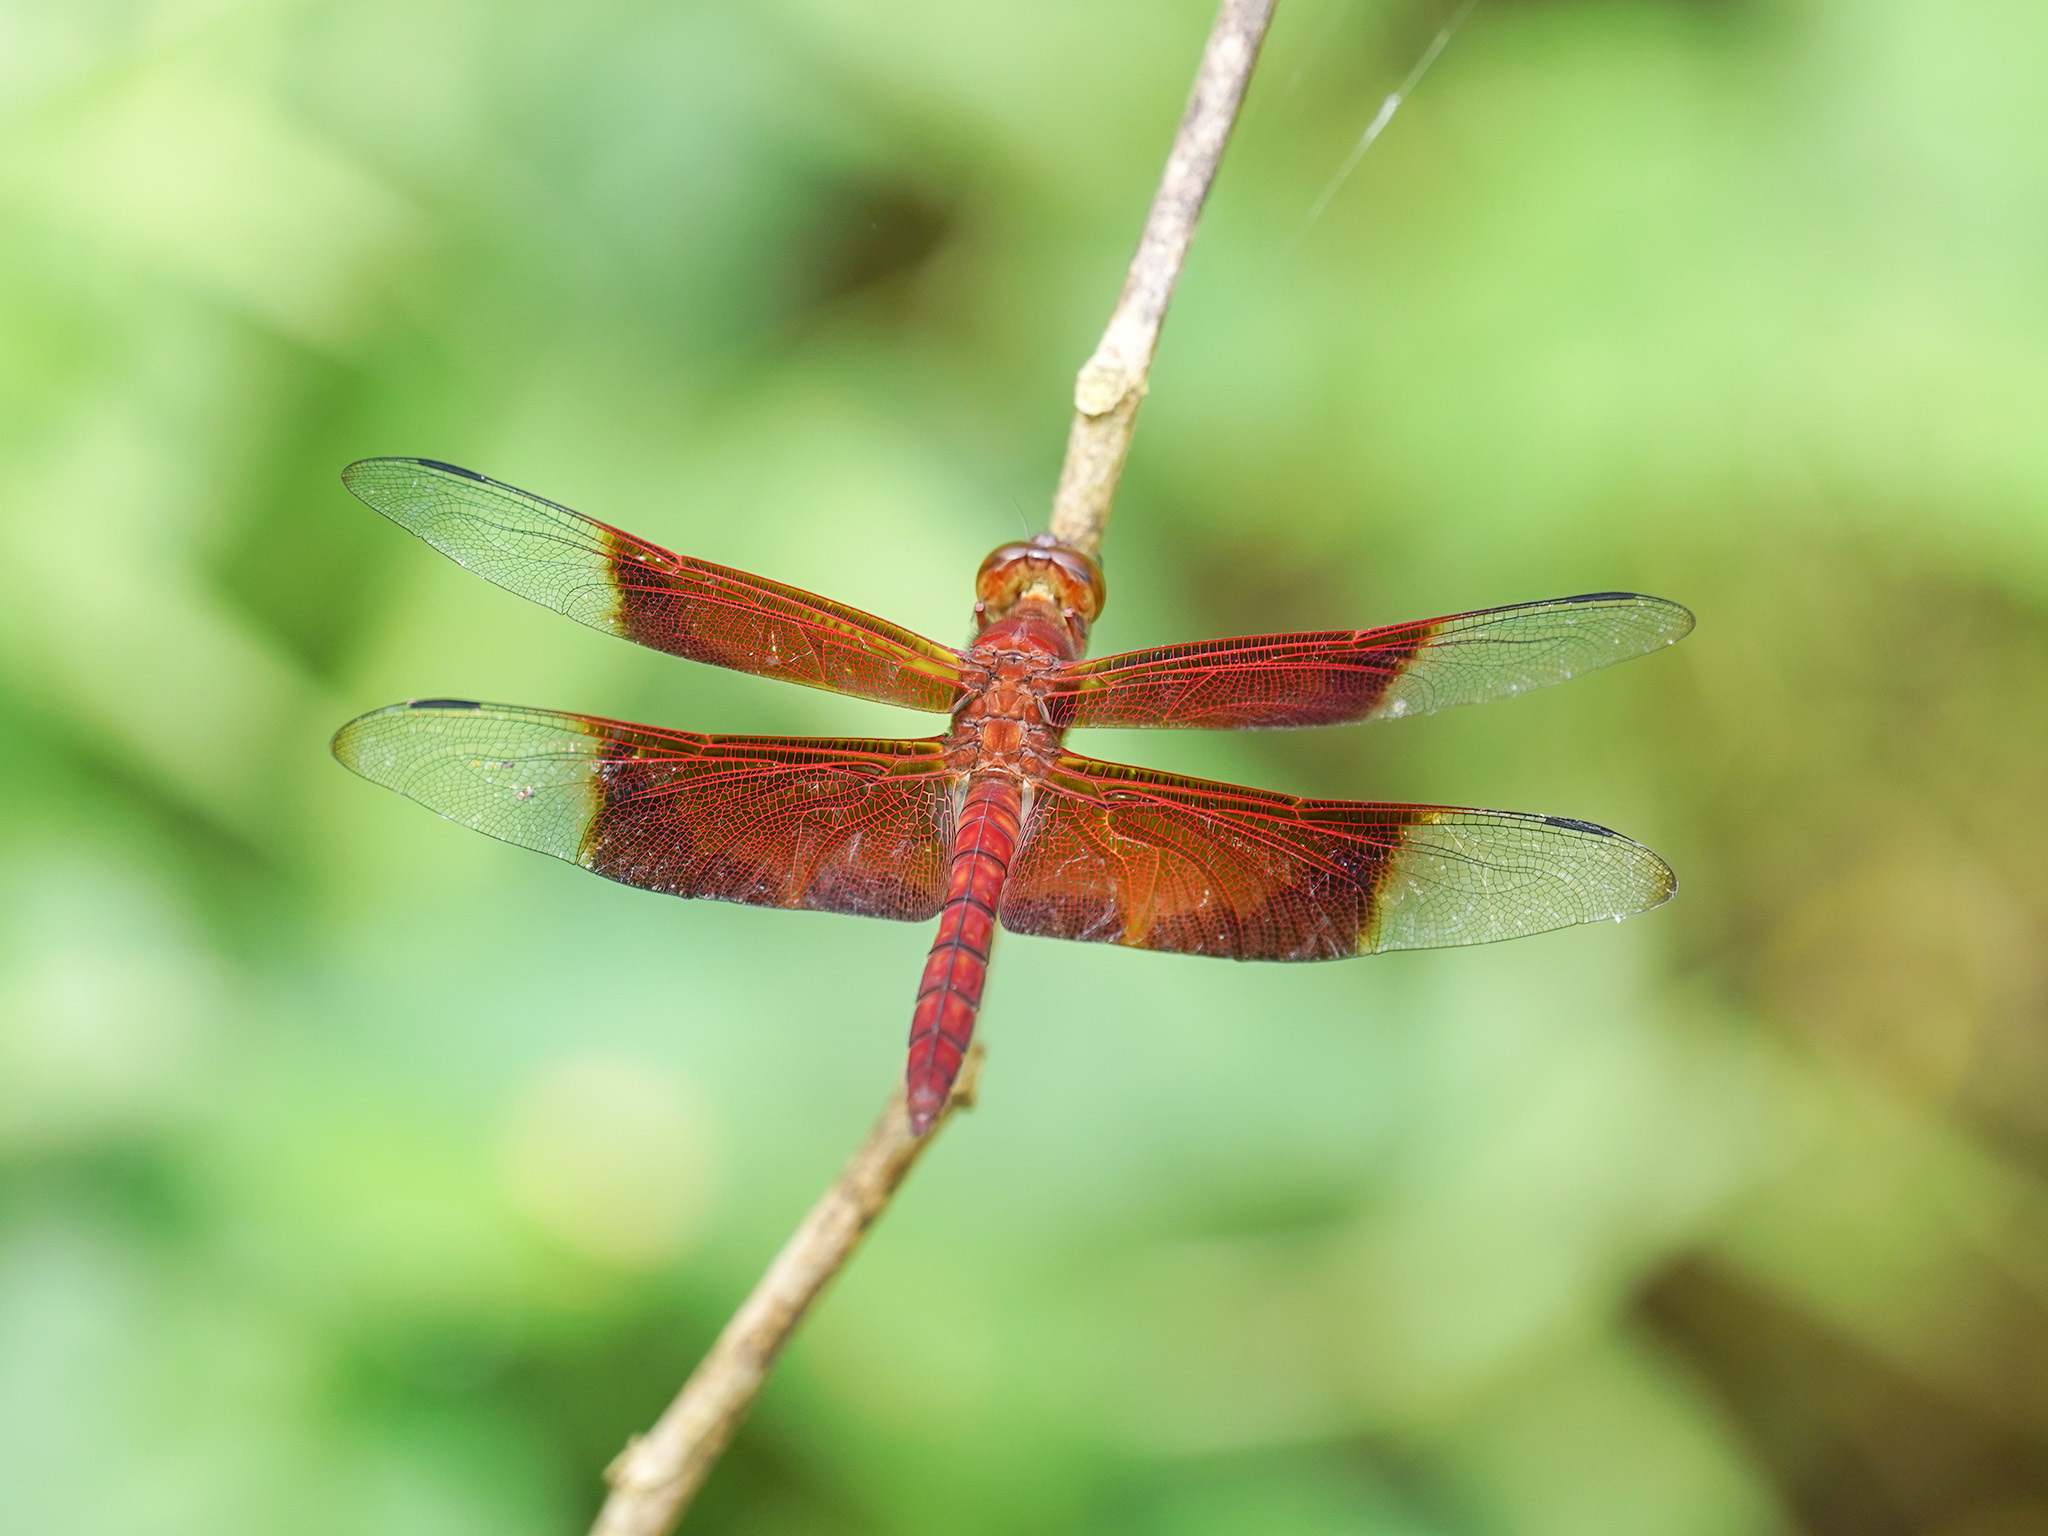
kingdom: Animalia
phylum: Arthropoda
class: Insecta
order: Odonata
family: Libellulidae
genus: Camacinia
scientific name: Camacinia gigantea
